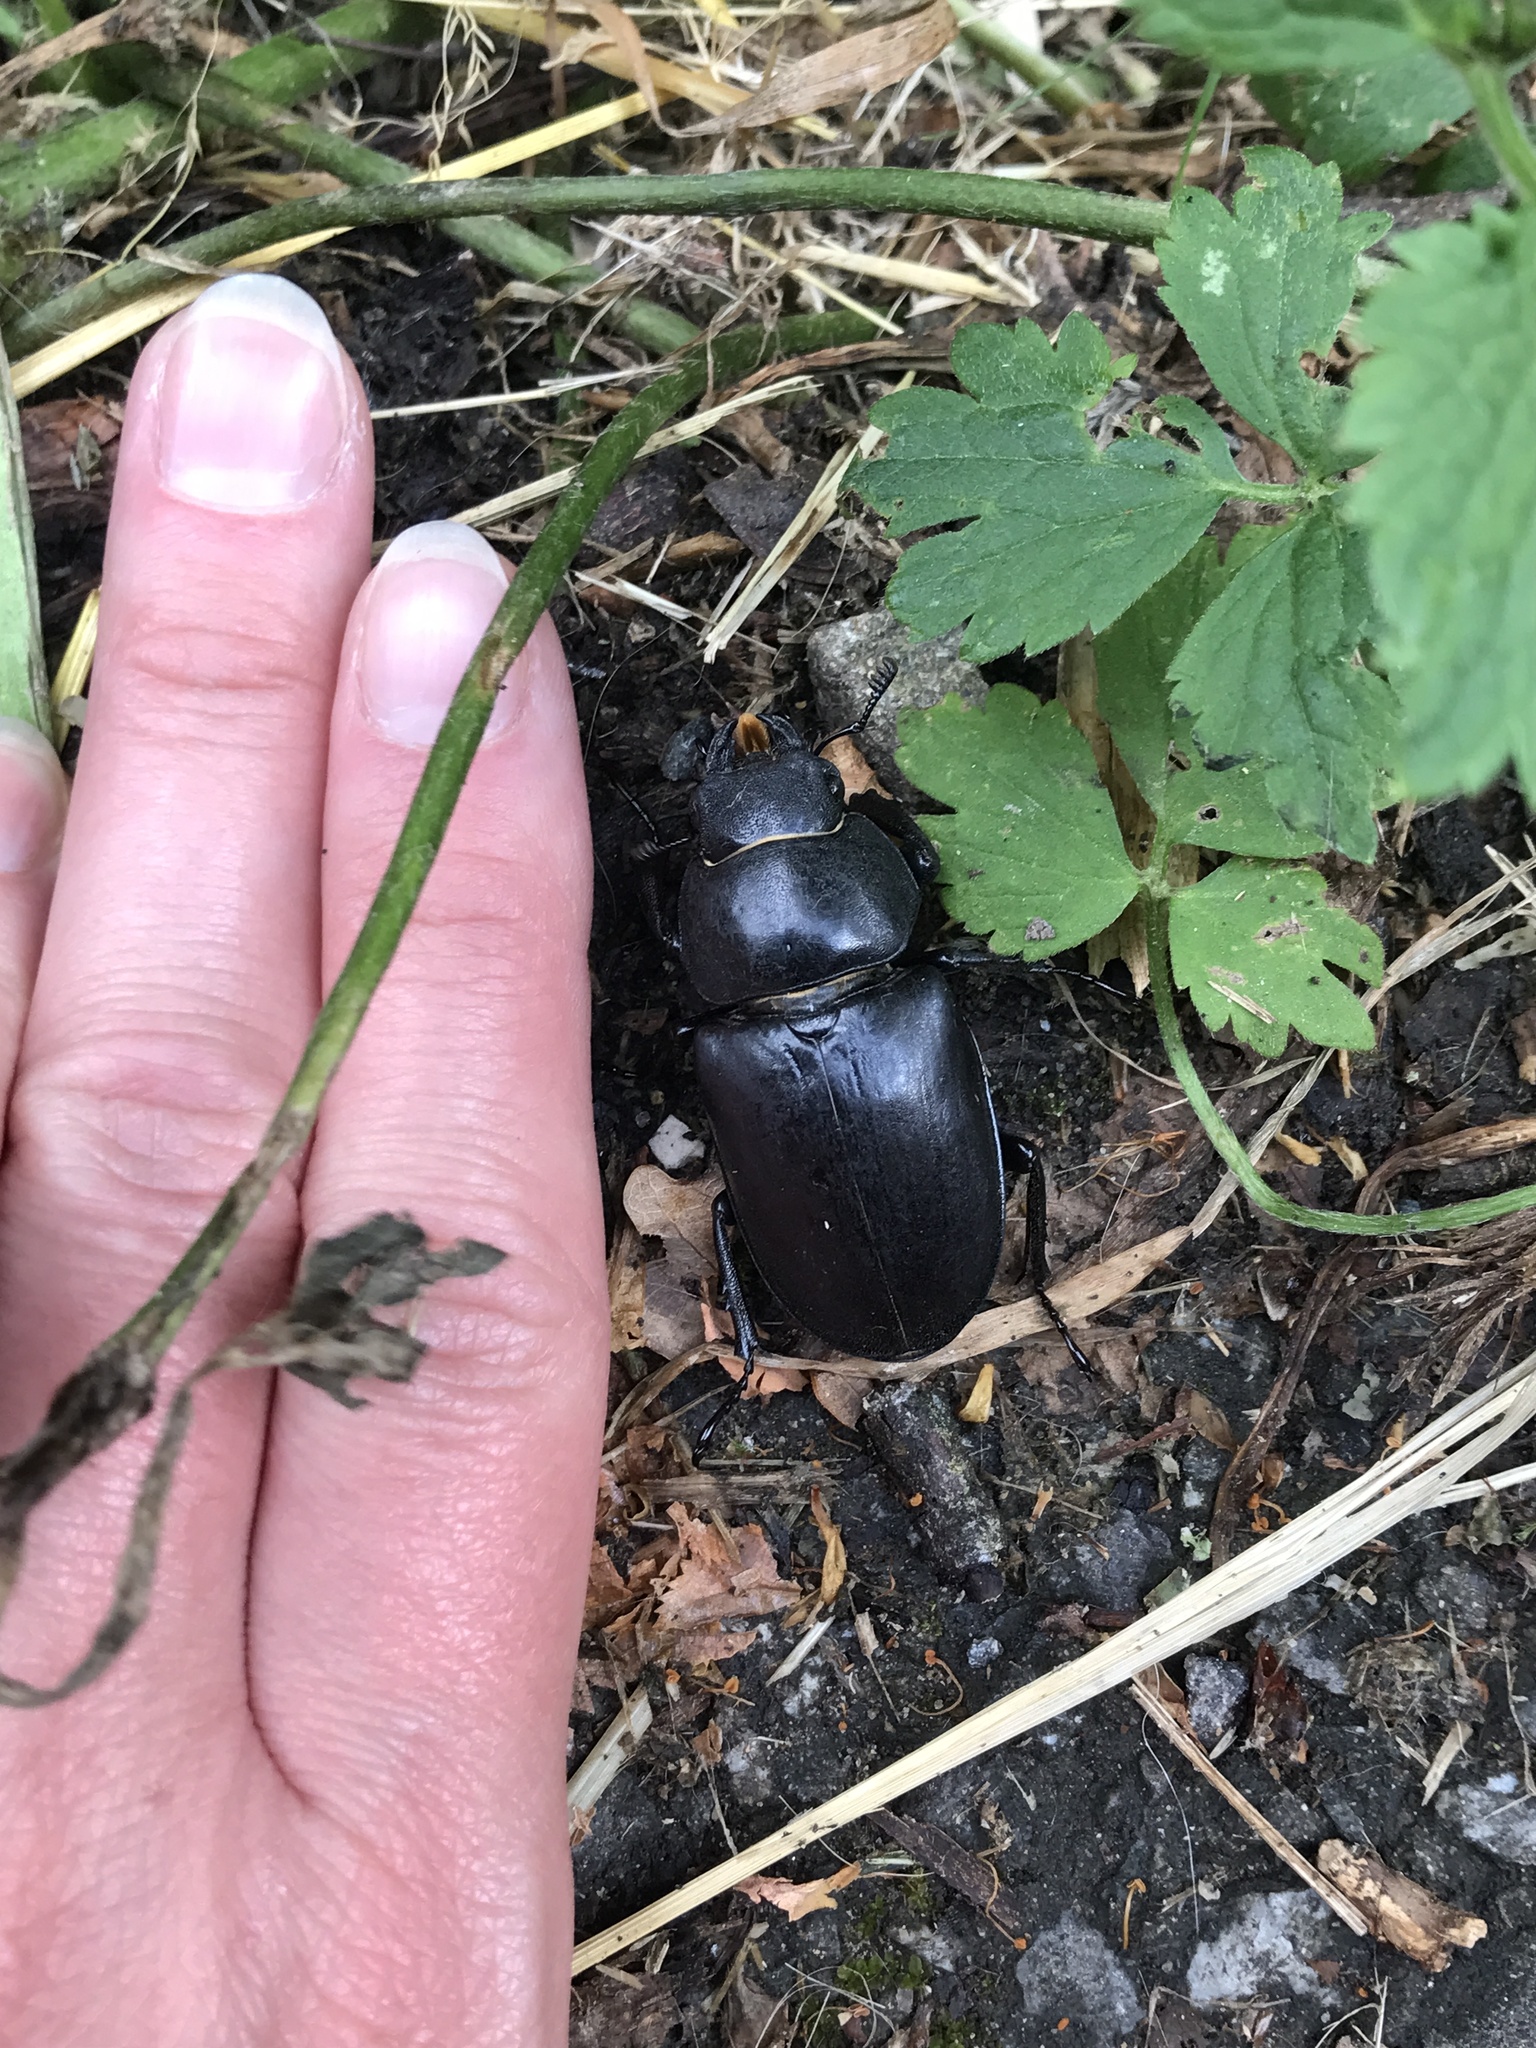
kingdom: Animalia
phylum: Arthropoda
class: Insecta
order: Coleoptera
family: Lucanidae
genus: Lucanus
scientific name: Lucanus cervus
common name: Stag beetle
